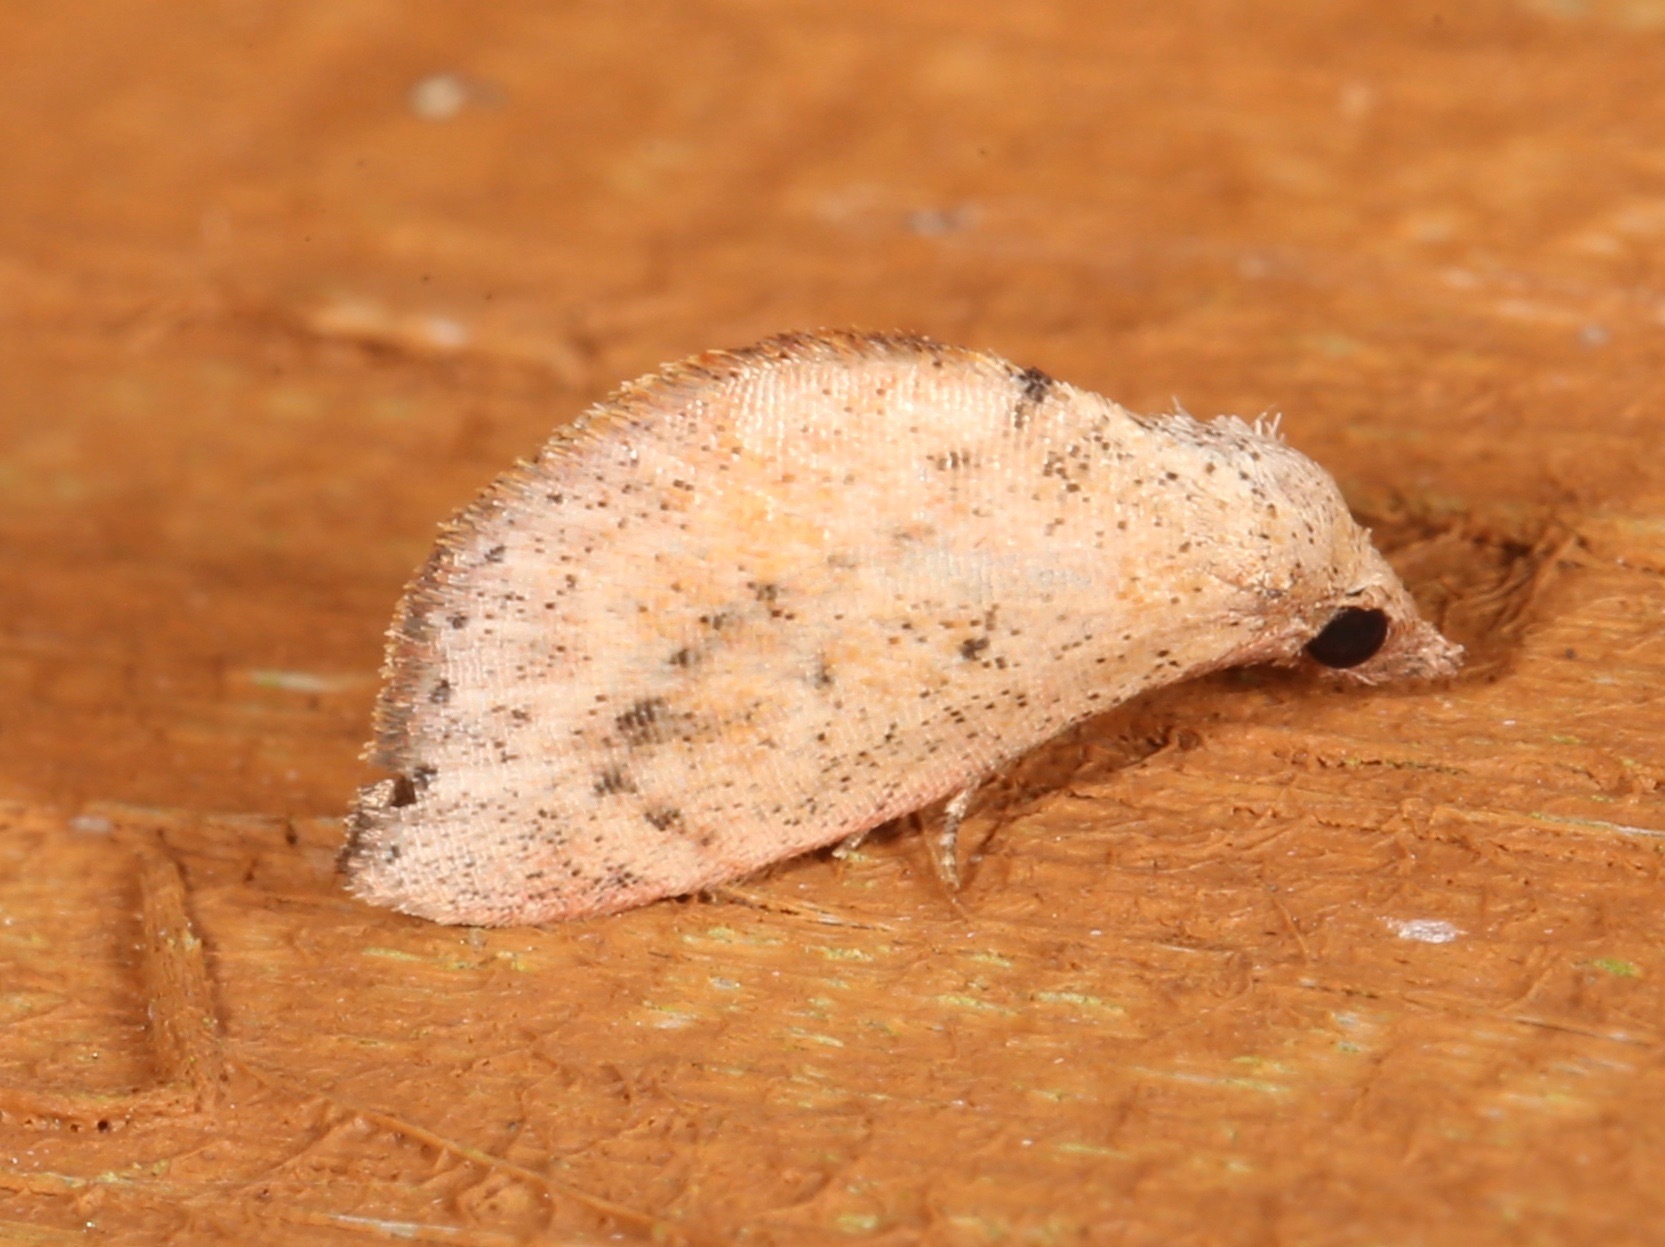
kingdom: Animalia
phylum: Arthropoda
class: Insecta
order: Lepidoptera
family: Noctuidae
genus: Proroblemma
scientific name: Proroblemma testa
